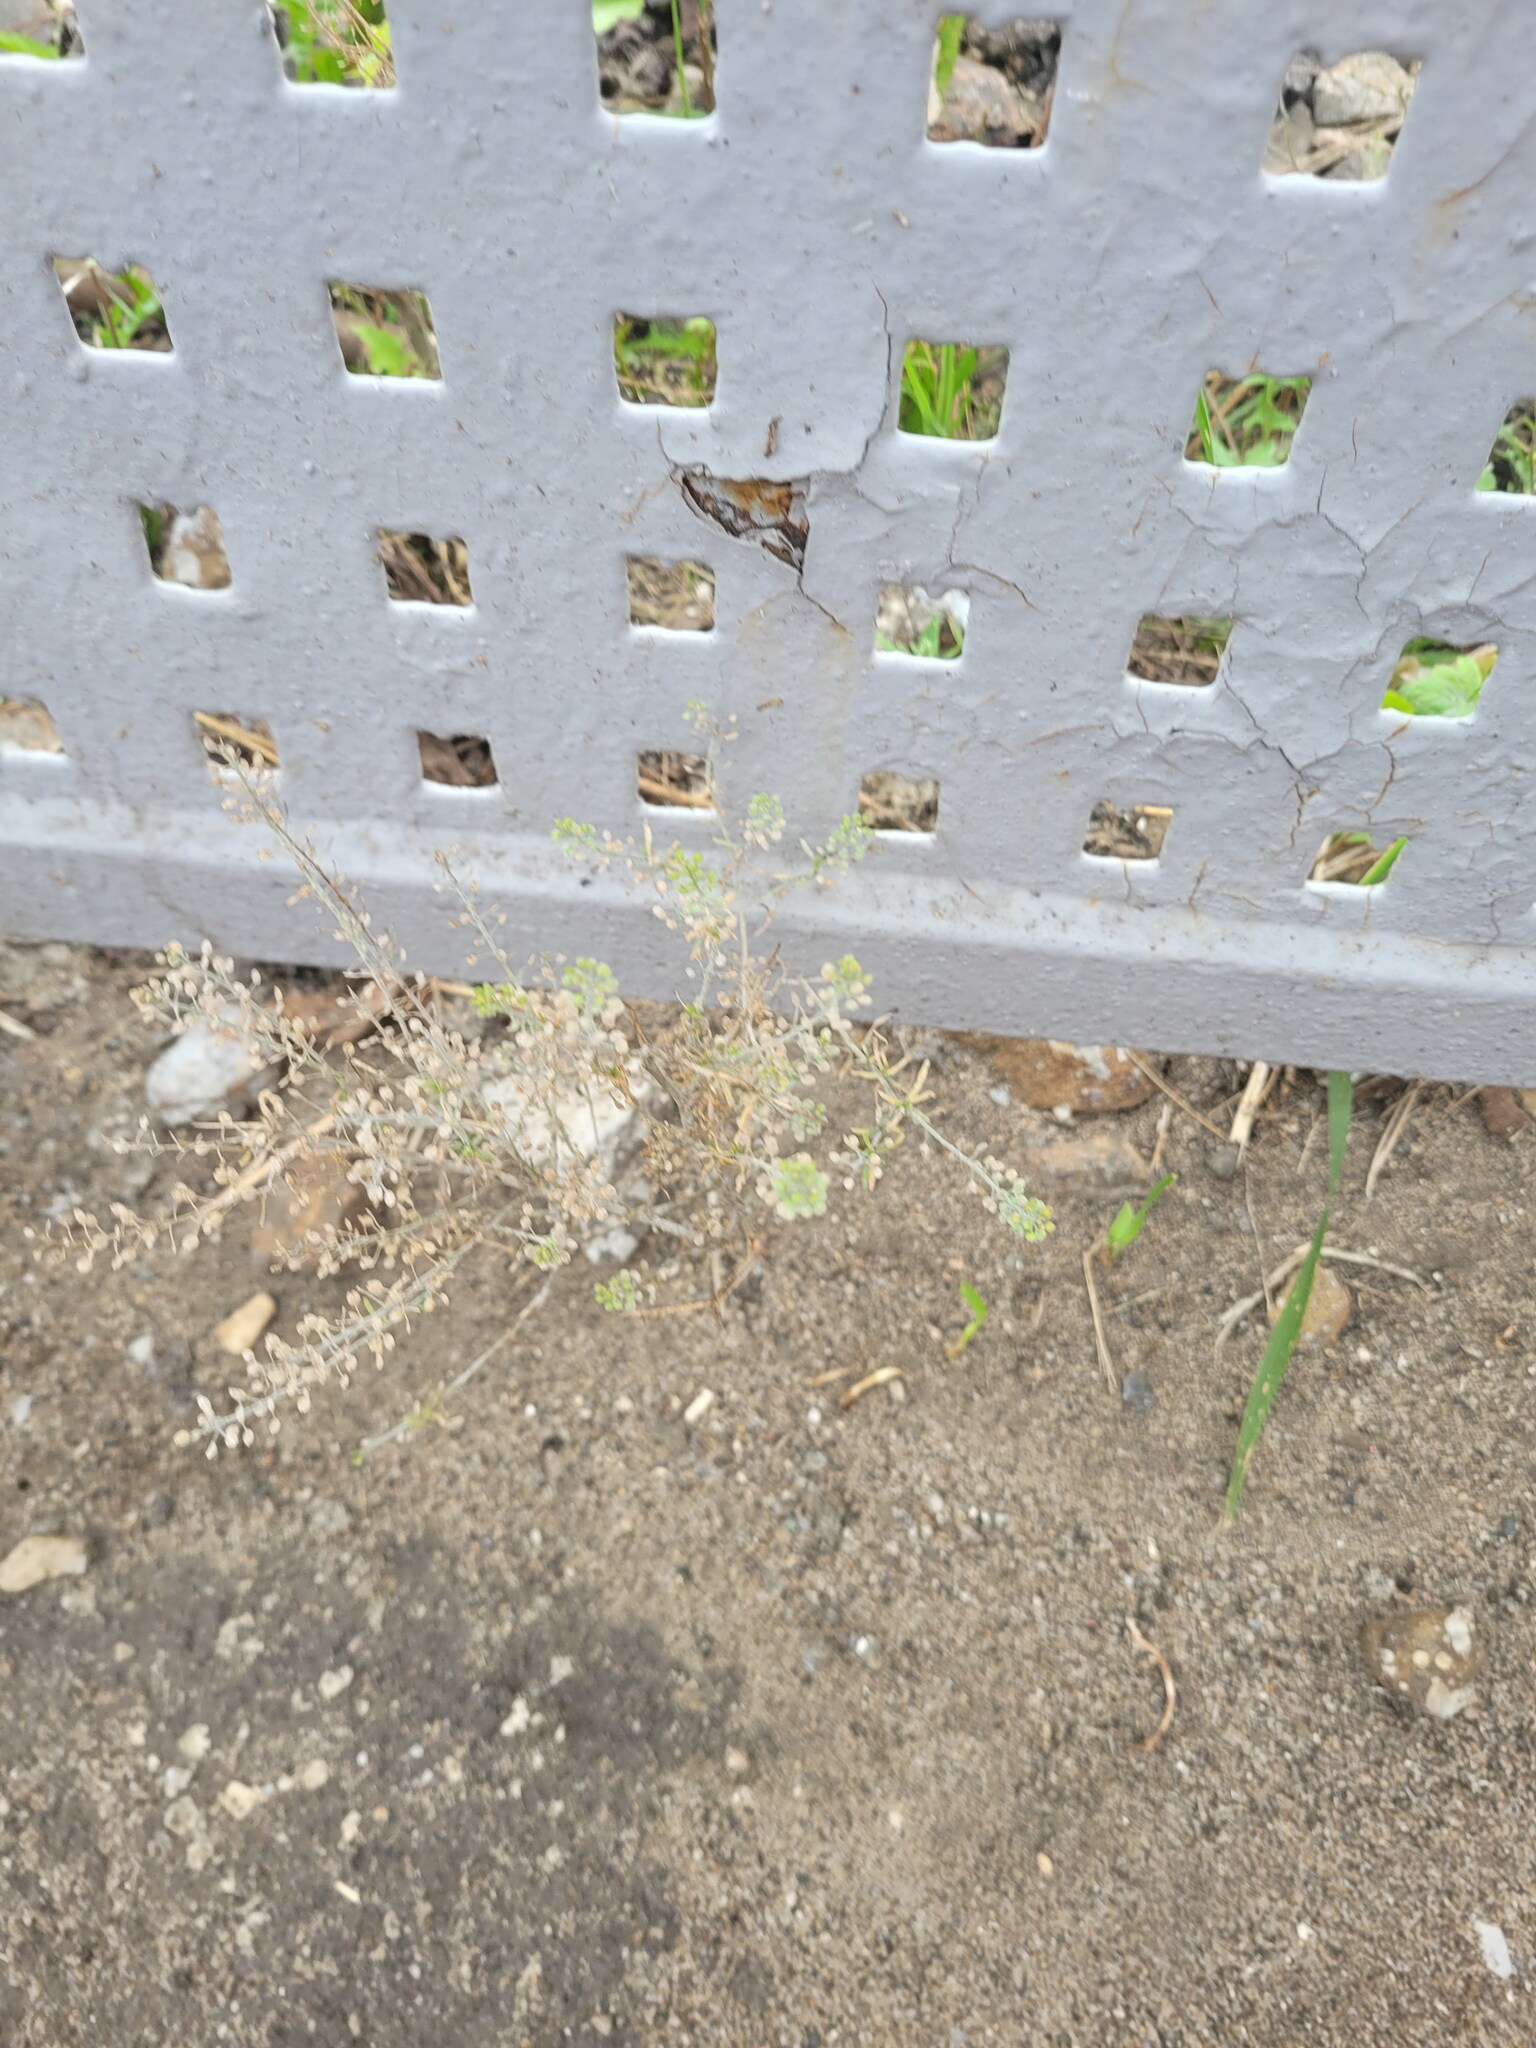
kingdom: Plantae
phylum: Tracheophyta
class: Magnoliopsida
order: Brassicales
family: Brassicaceae
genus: Lepidium
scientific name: Lepidium ruderale
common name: Narrow-leaved pepperwort
